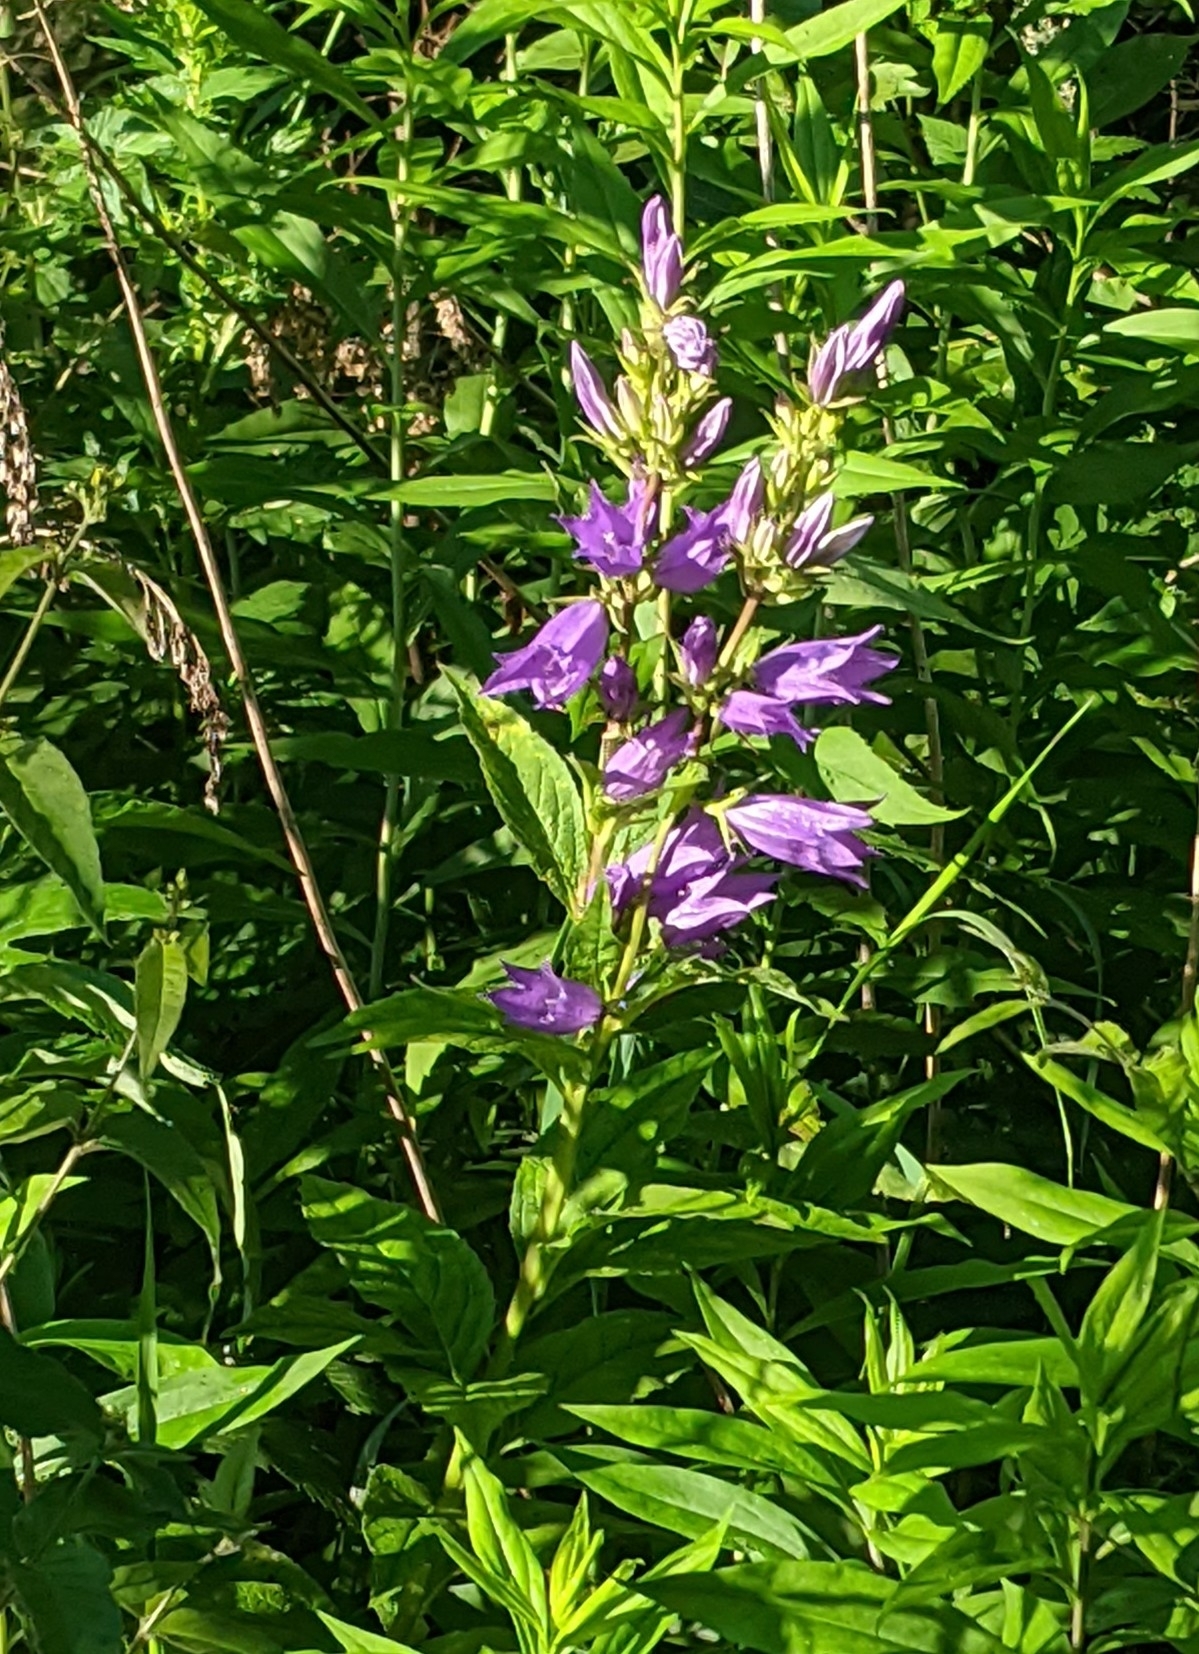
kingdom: Plantae
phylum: Tracheophyta
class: Magnoliopsida
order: Asterales
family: Campanulaceae
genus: Campanula
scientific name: Campanula latifolia
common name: Giant bellflower
